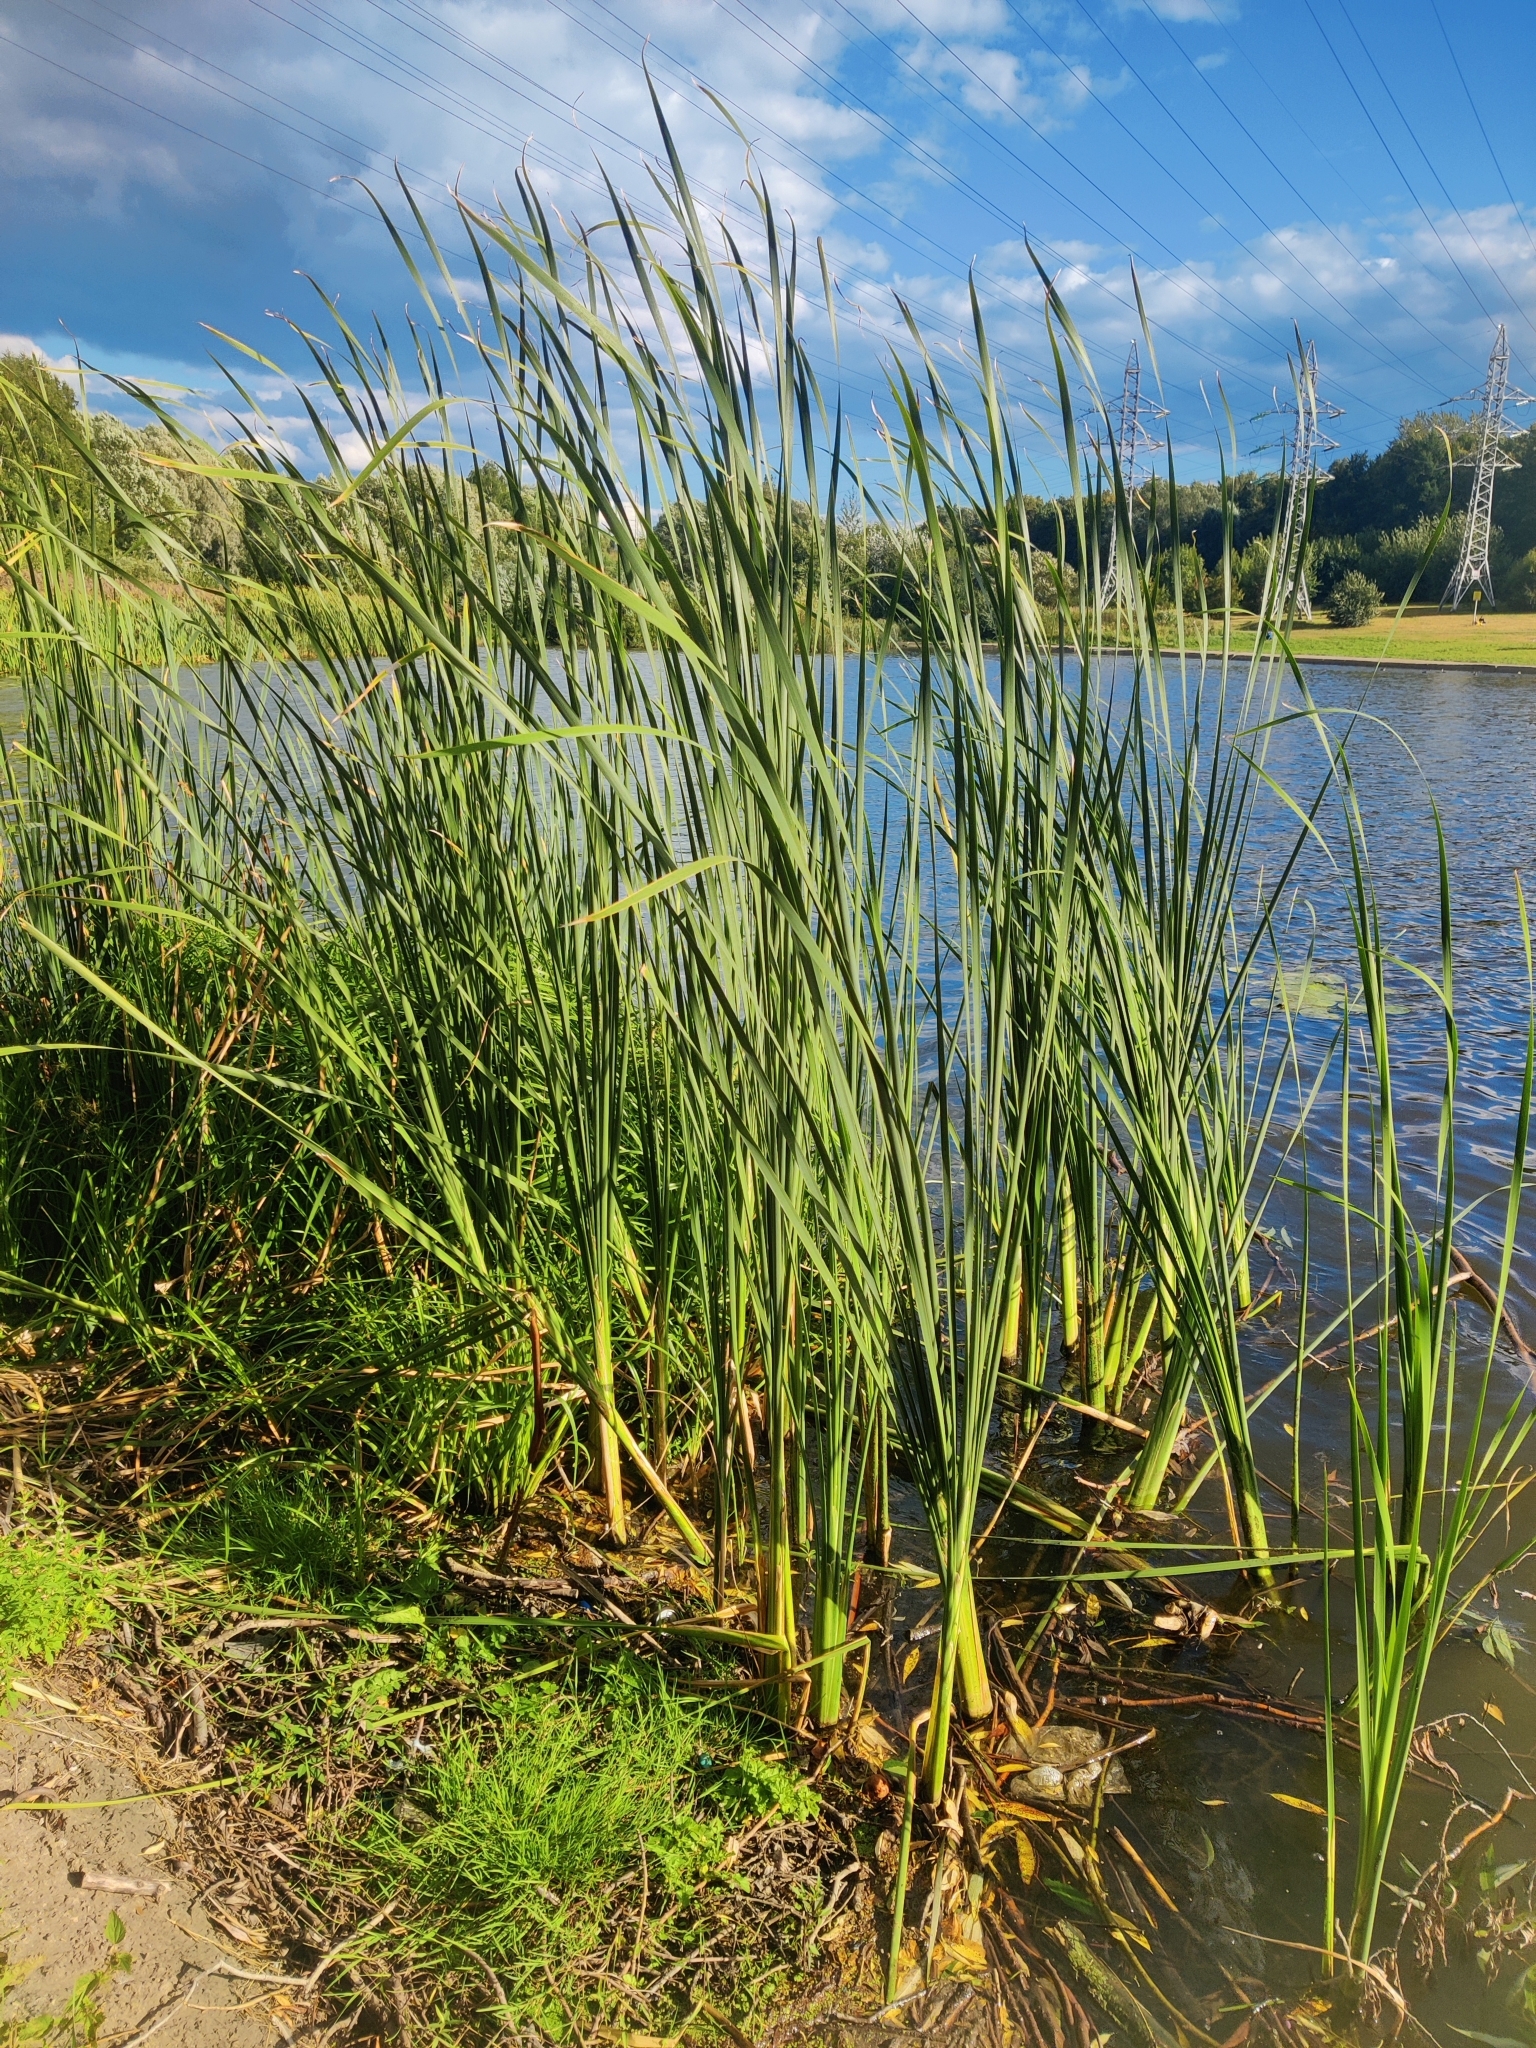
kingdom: Plantae
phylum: Tracheophyta
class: Liliopsida
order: Poales
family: Typhaceae
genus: Typha
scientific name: Typha angustifolia
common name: Lesser bulrush
